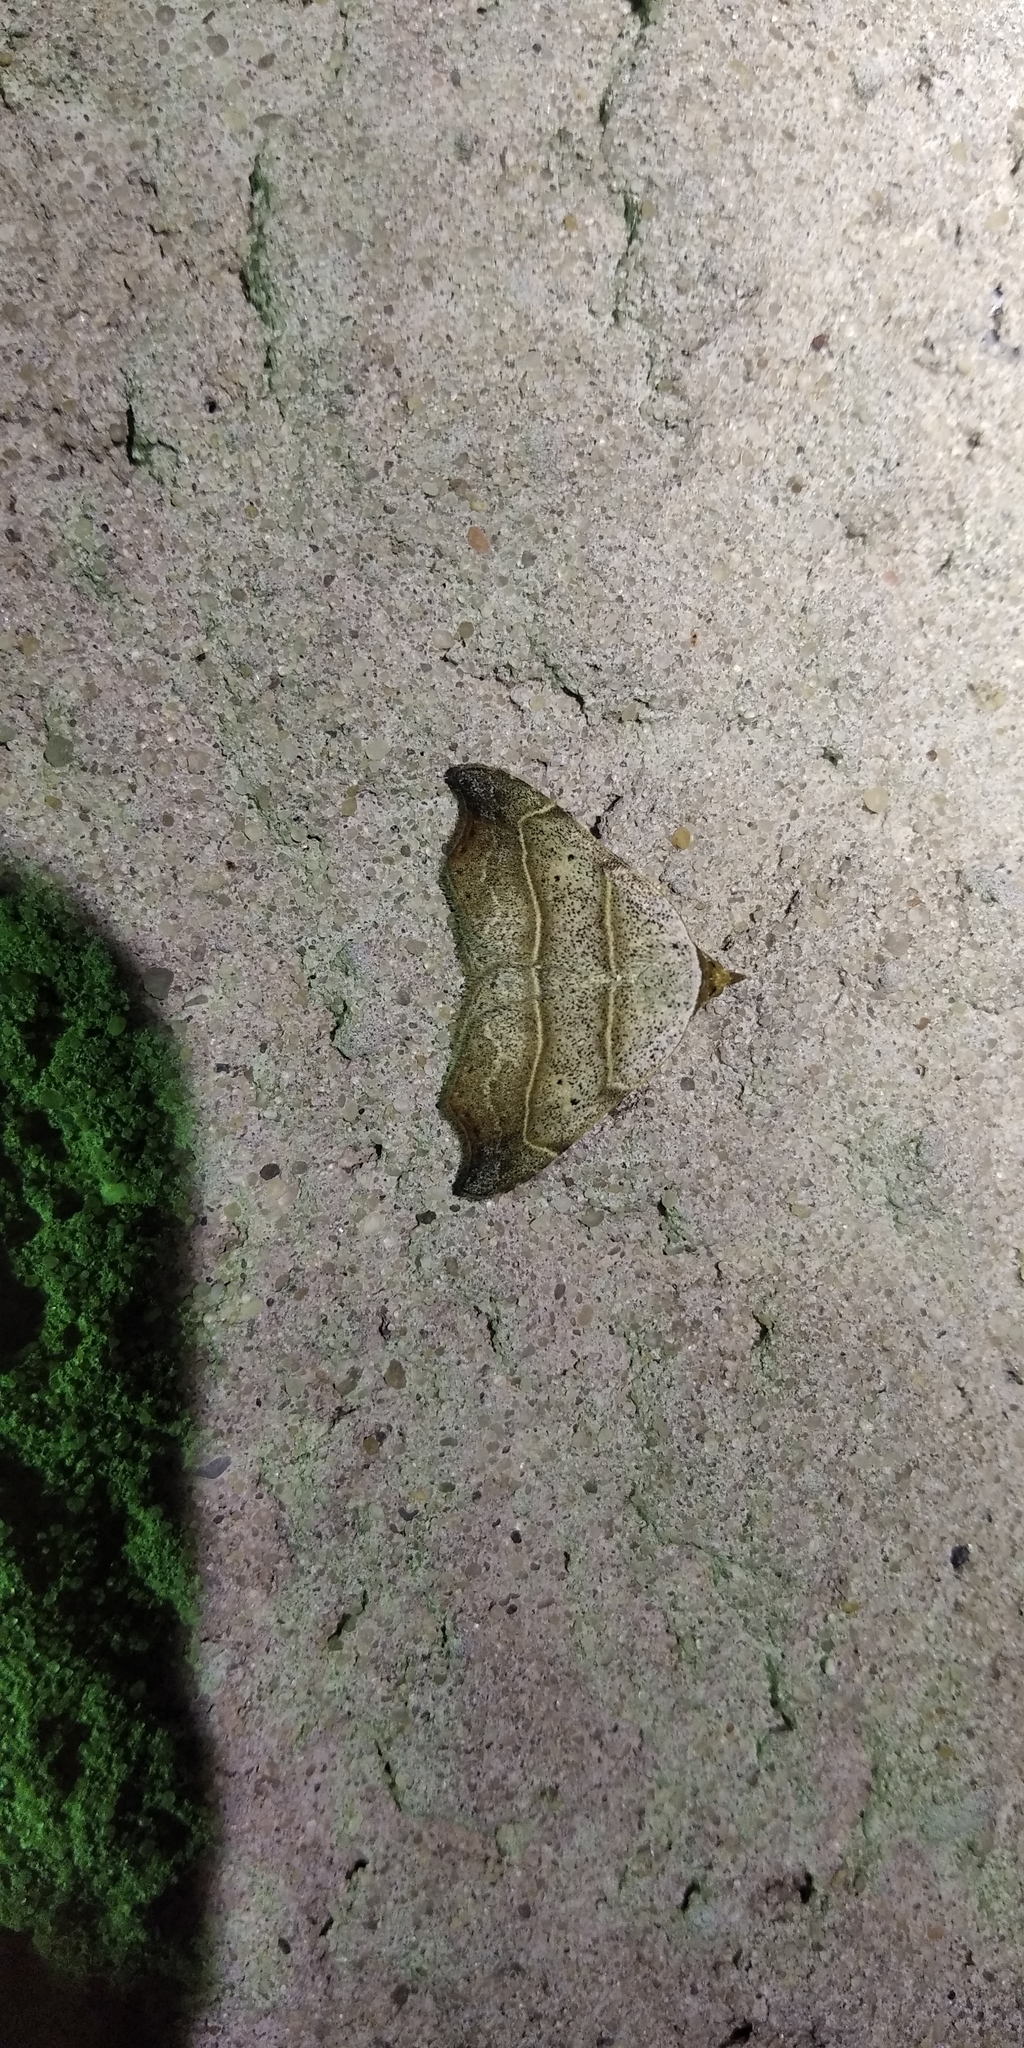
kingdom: Animalia
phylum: Arthropoda
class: Insecta
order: Lepidoptera
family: Erebidae
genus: Laspeyria
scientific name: Laspeyria flexula
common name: Beautiful hook-tip
